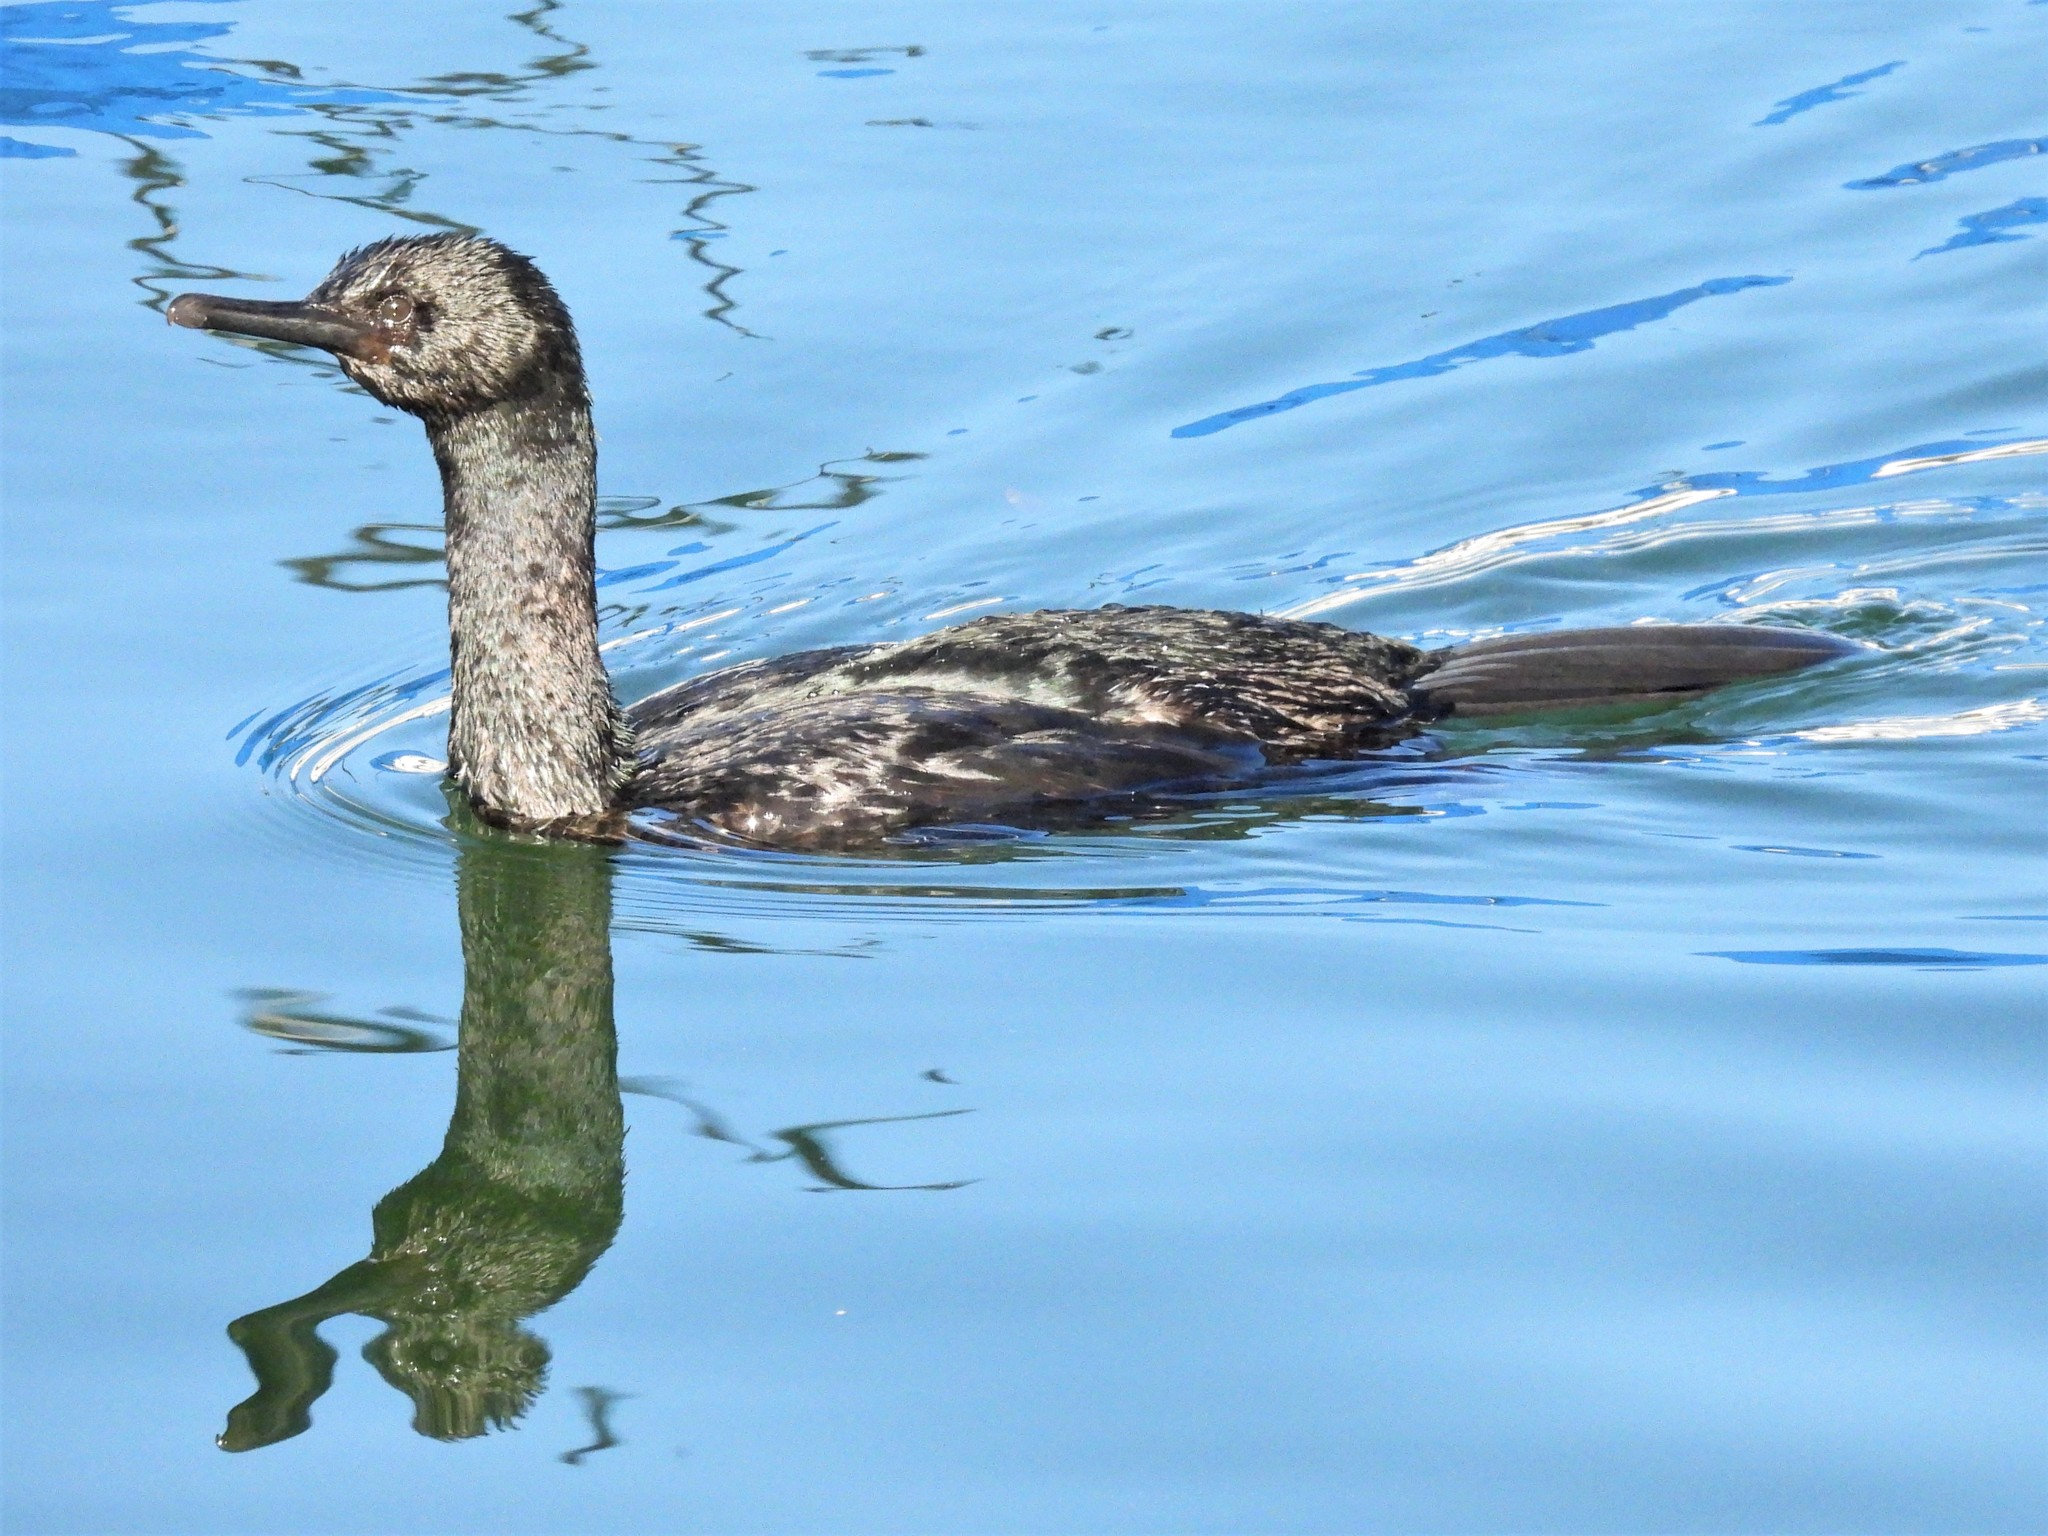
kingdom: Animalia
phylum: Chordata
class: Aves
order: Suliformes
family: Phalacrocoracidae
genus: Phalacrocorax
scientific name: Phalacrocorax pelagicus
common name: Pelagic cormorant
